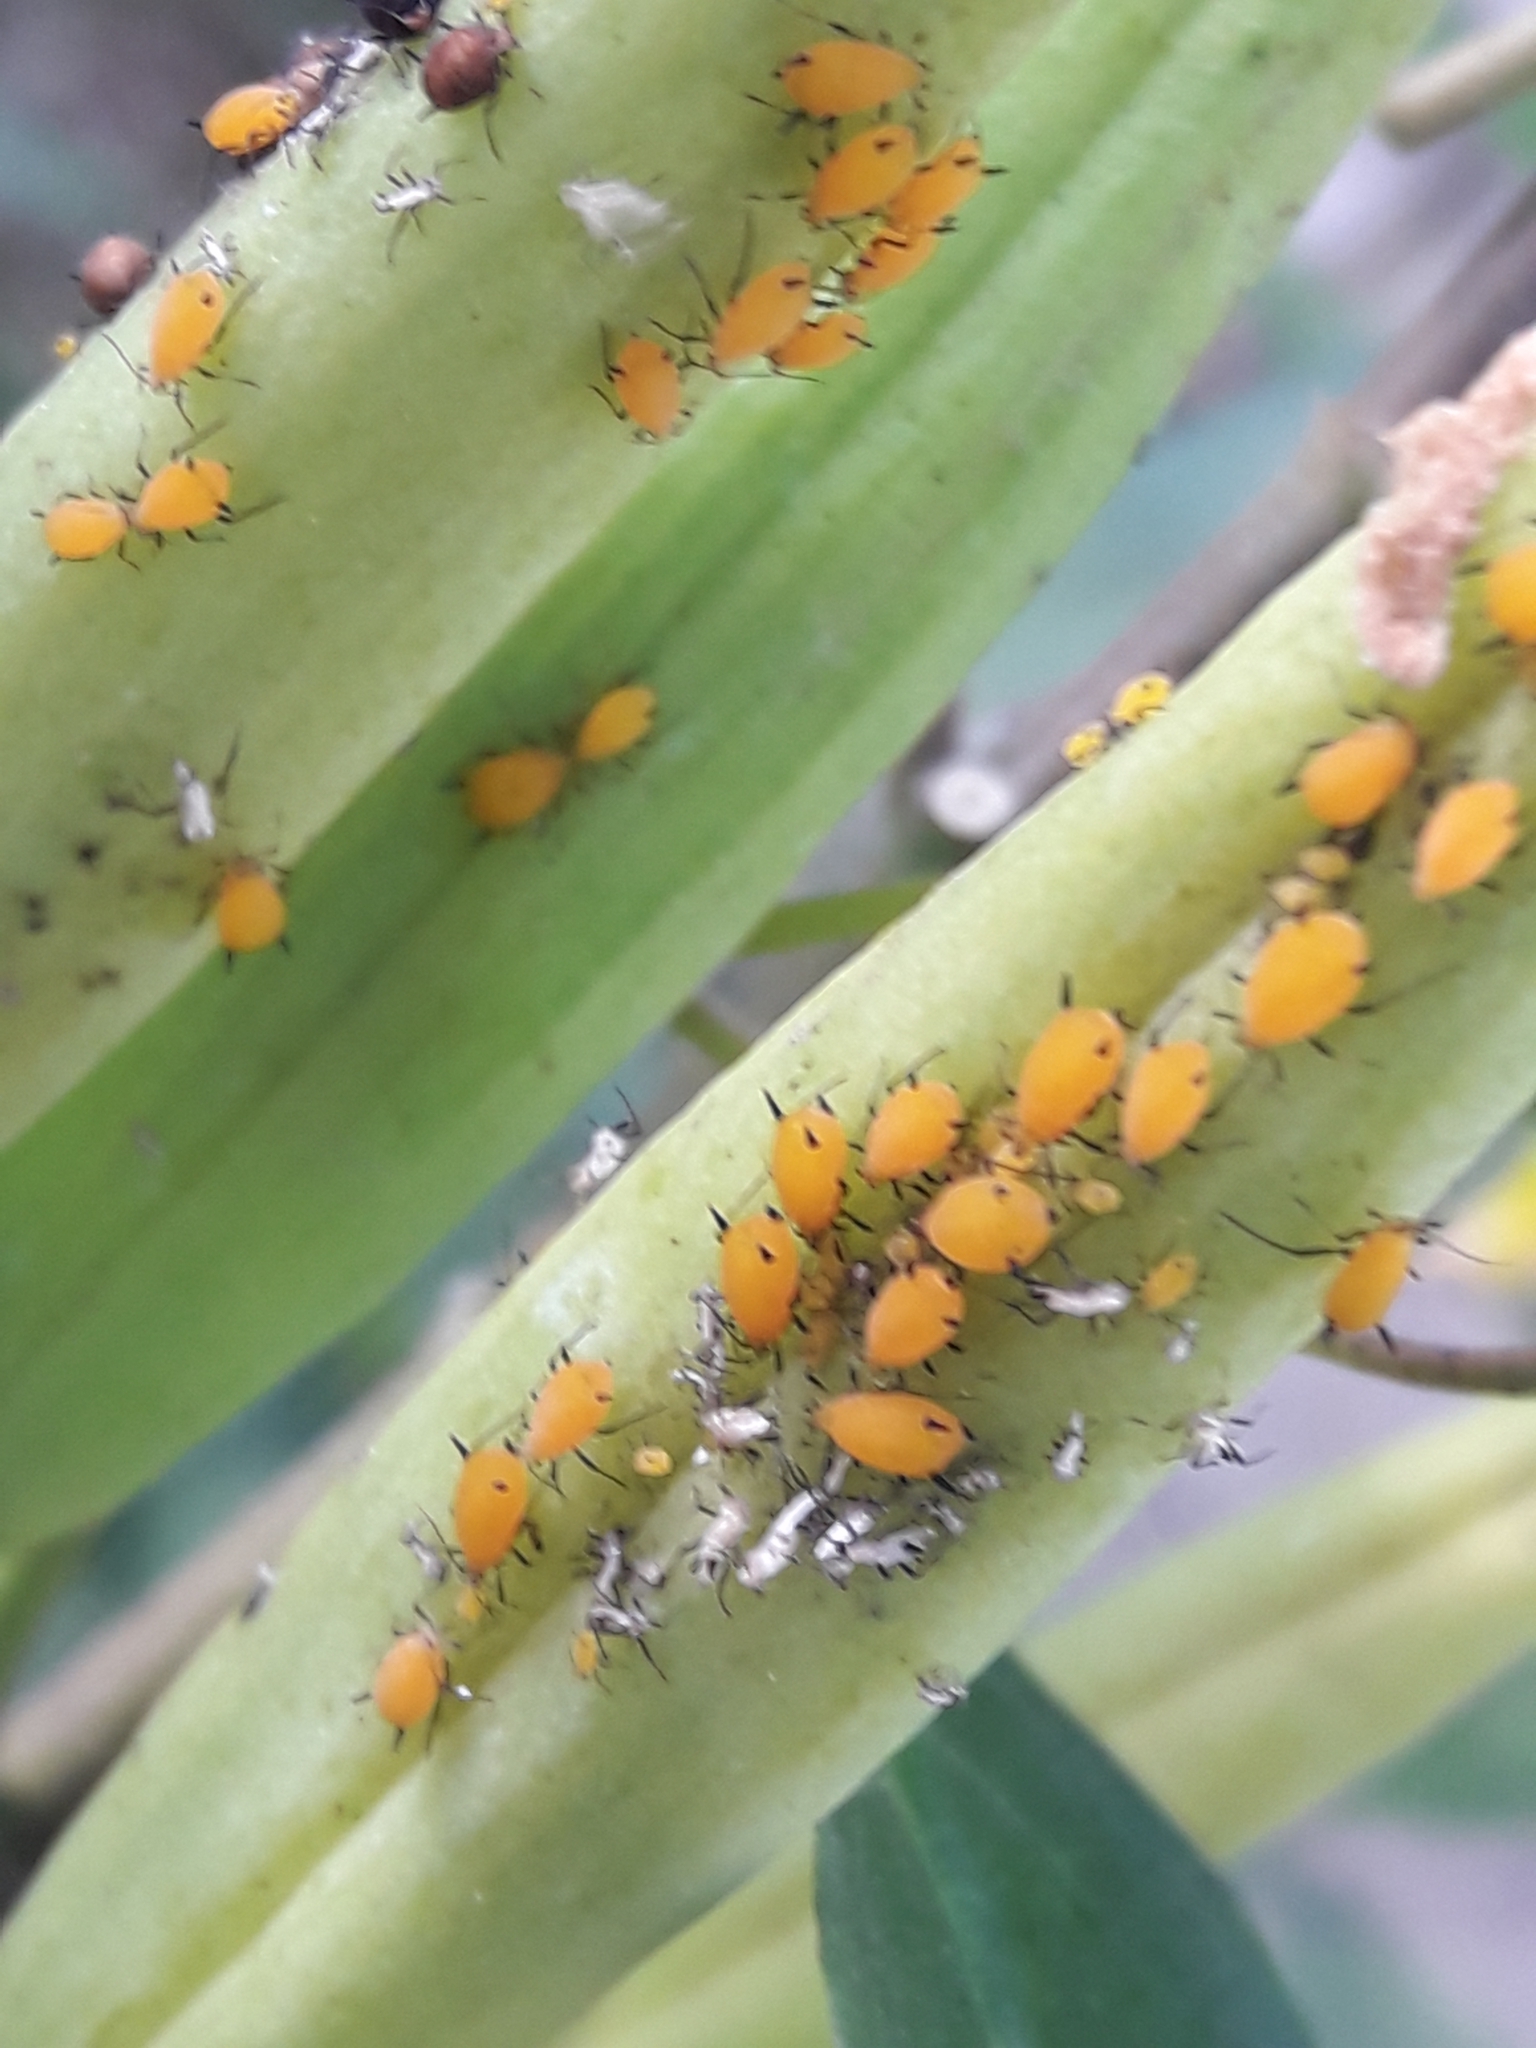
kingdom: Animalia
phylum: Arthropoda
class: Insecta
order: Hemiptera
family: Aphididae
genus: Aphis
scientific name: Aphis nerii
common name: Oleander aphid
